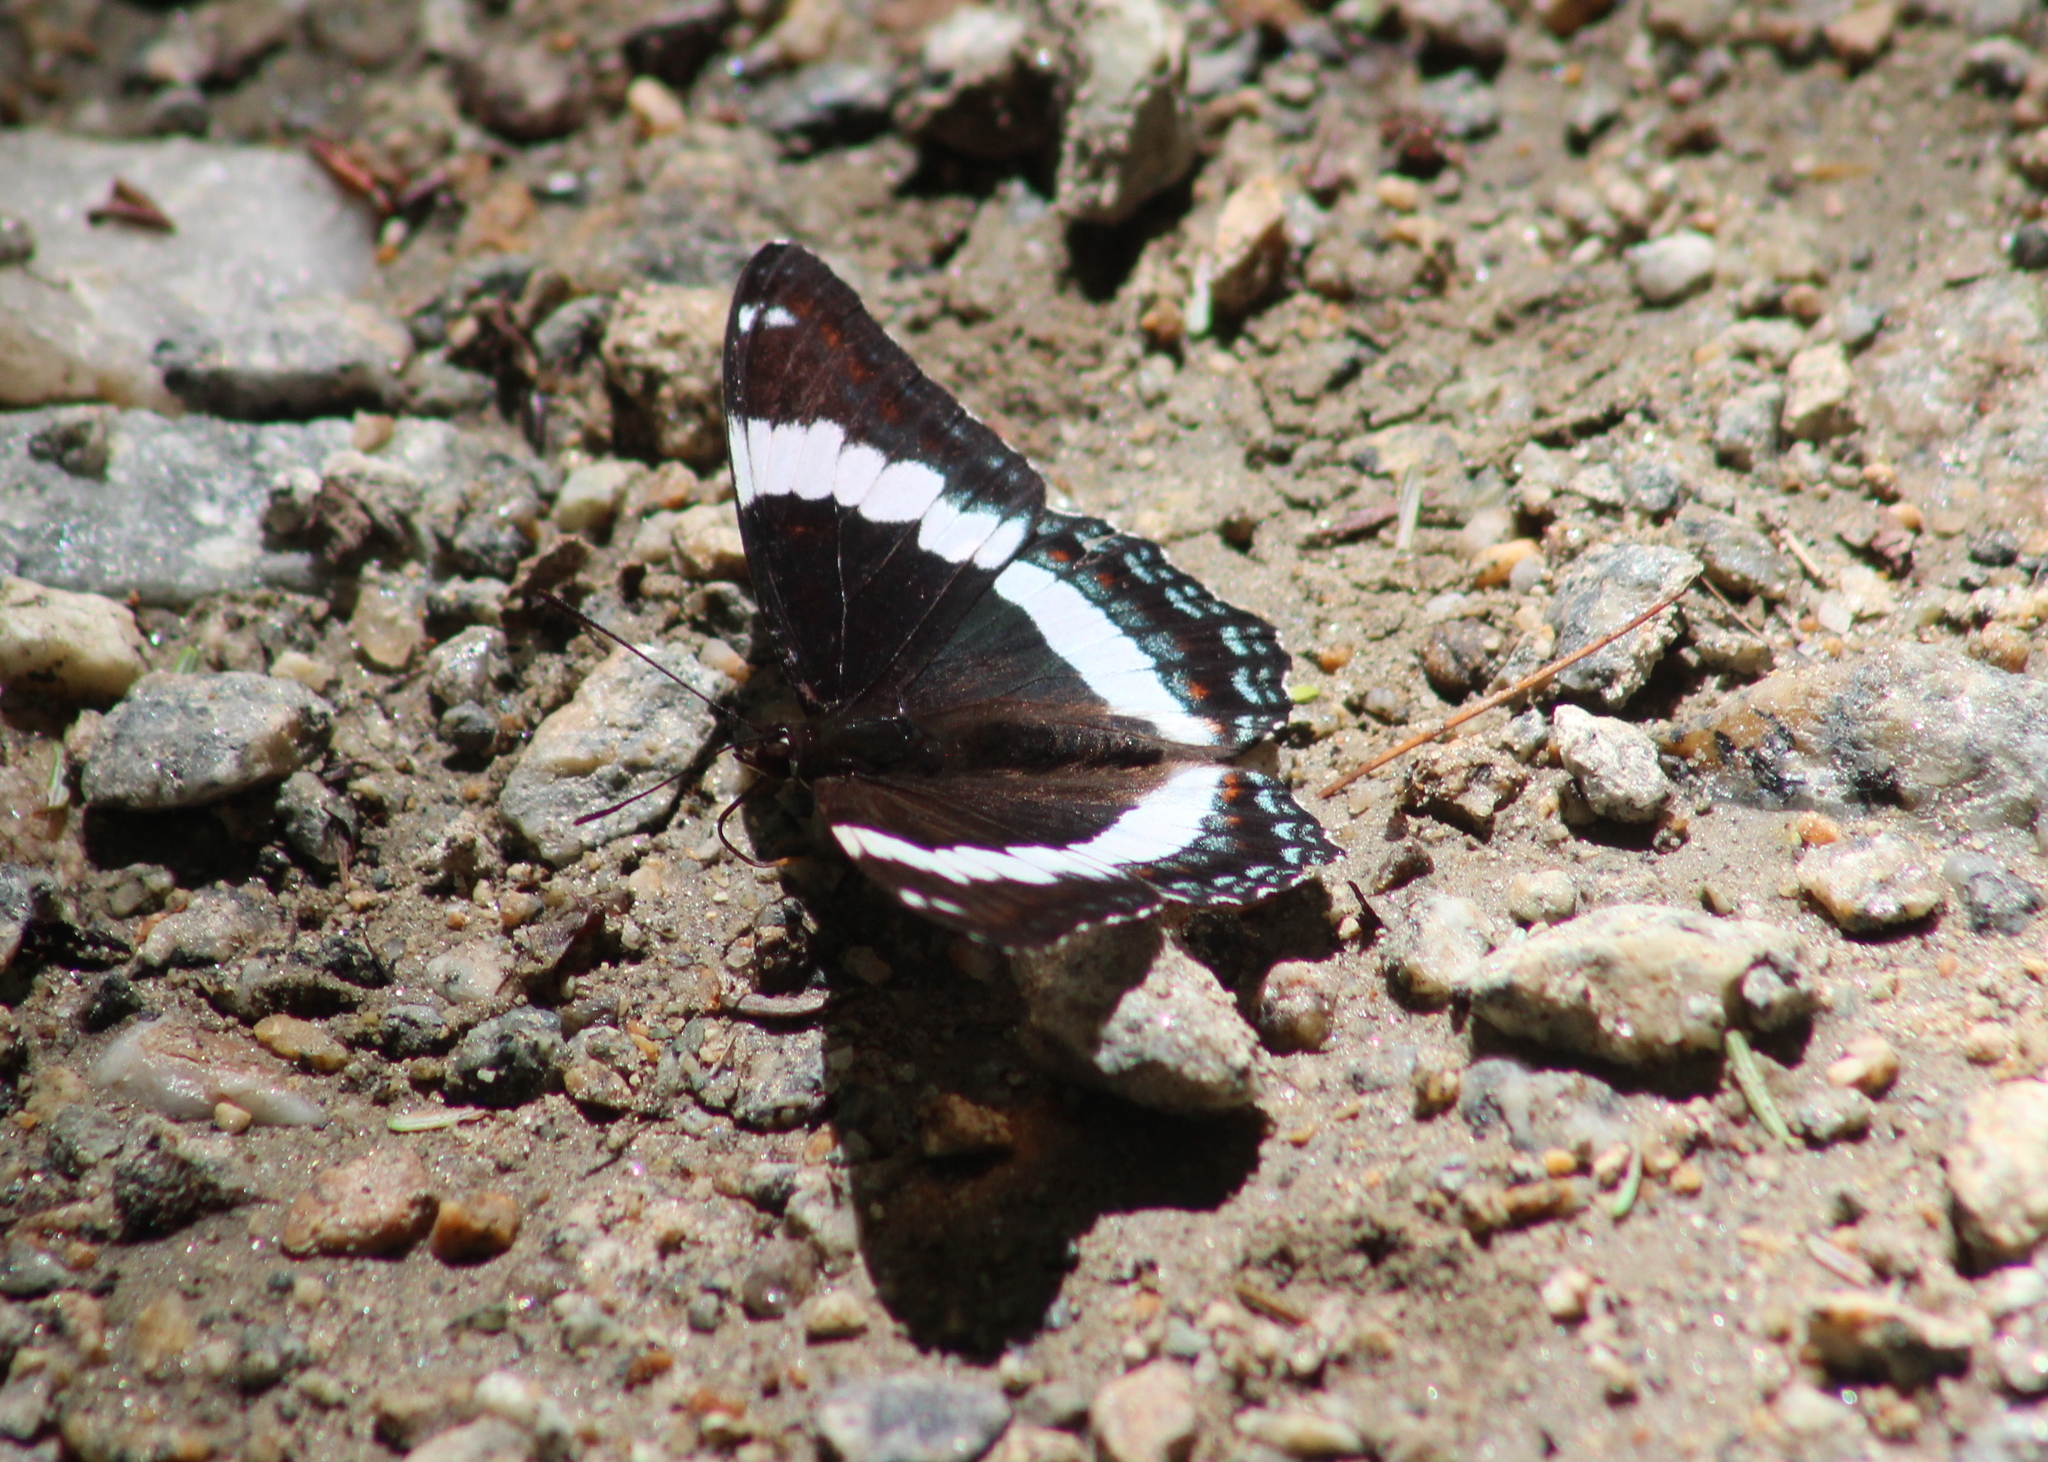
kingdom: Animalia
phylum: Arthropoda
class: Insecta
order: Lepidoptera
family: Nymphalidae
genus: Limenitis
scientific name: Limenitis arthemis
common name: Red-spotted admiral
